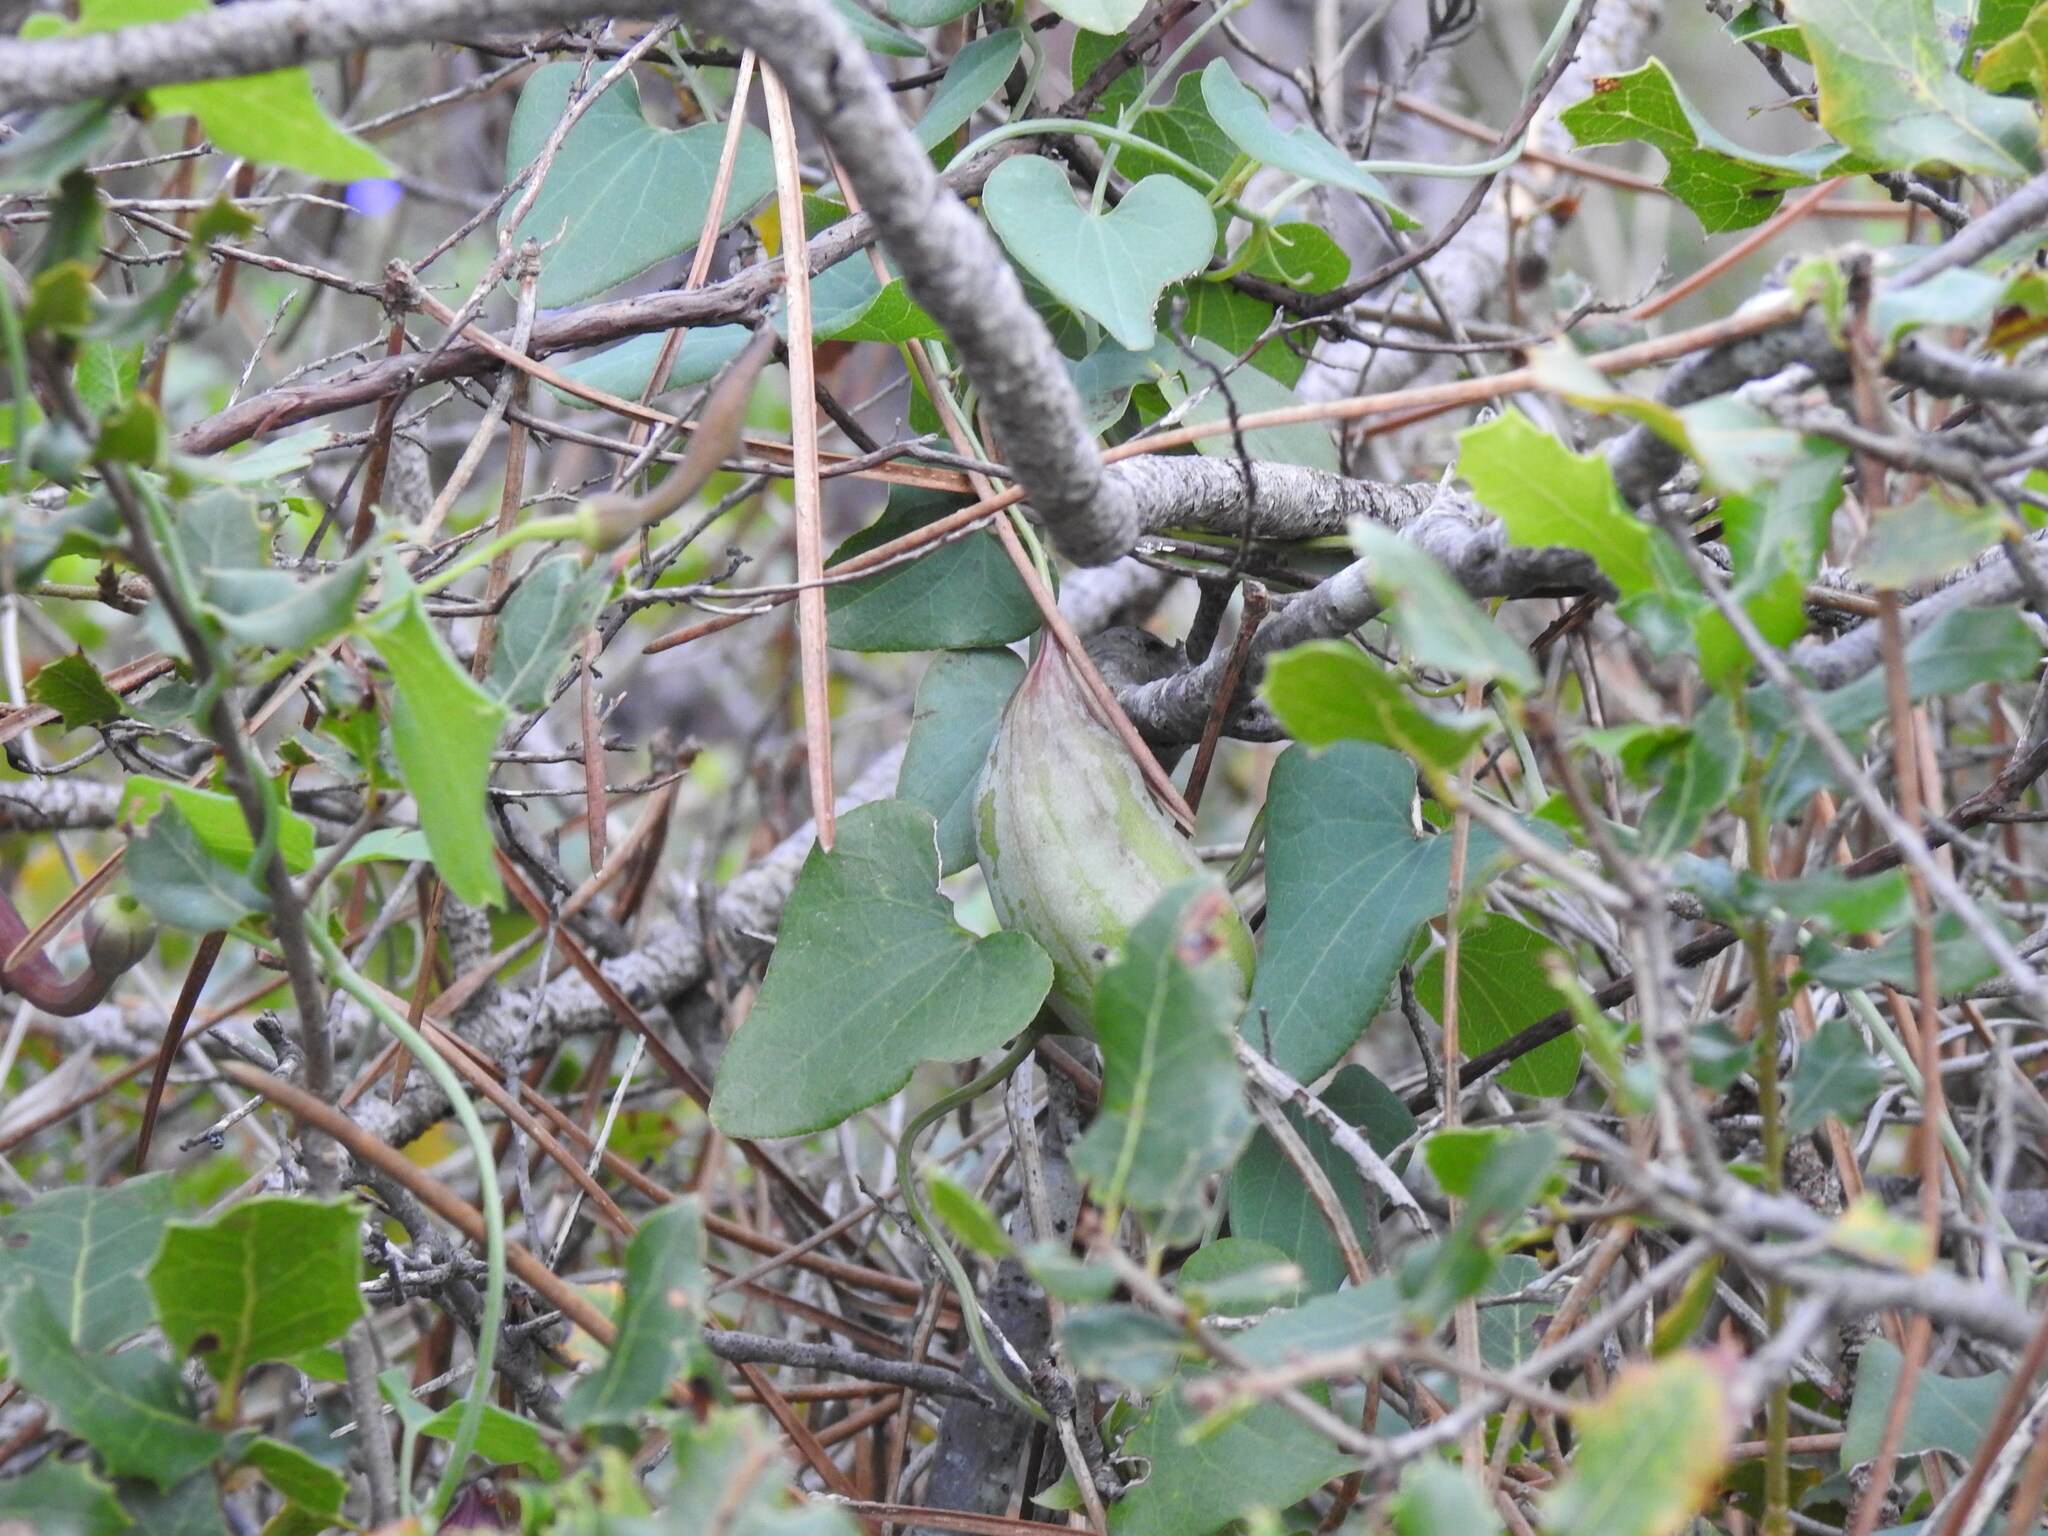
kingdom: Plantae
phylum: Tracheophyta
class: Magnoliopsida
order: Piperales
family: Aristolochiaceae
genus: Aristolochia
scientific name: Aristolochia baetica
